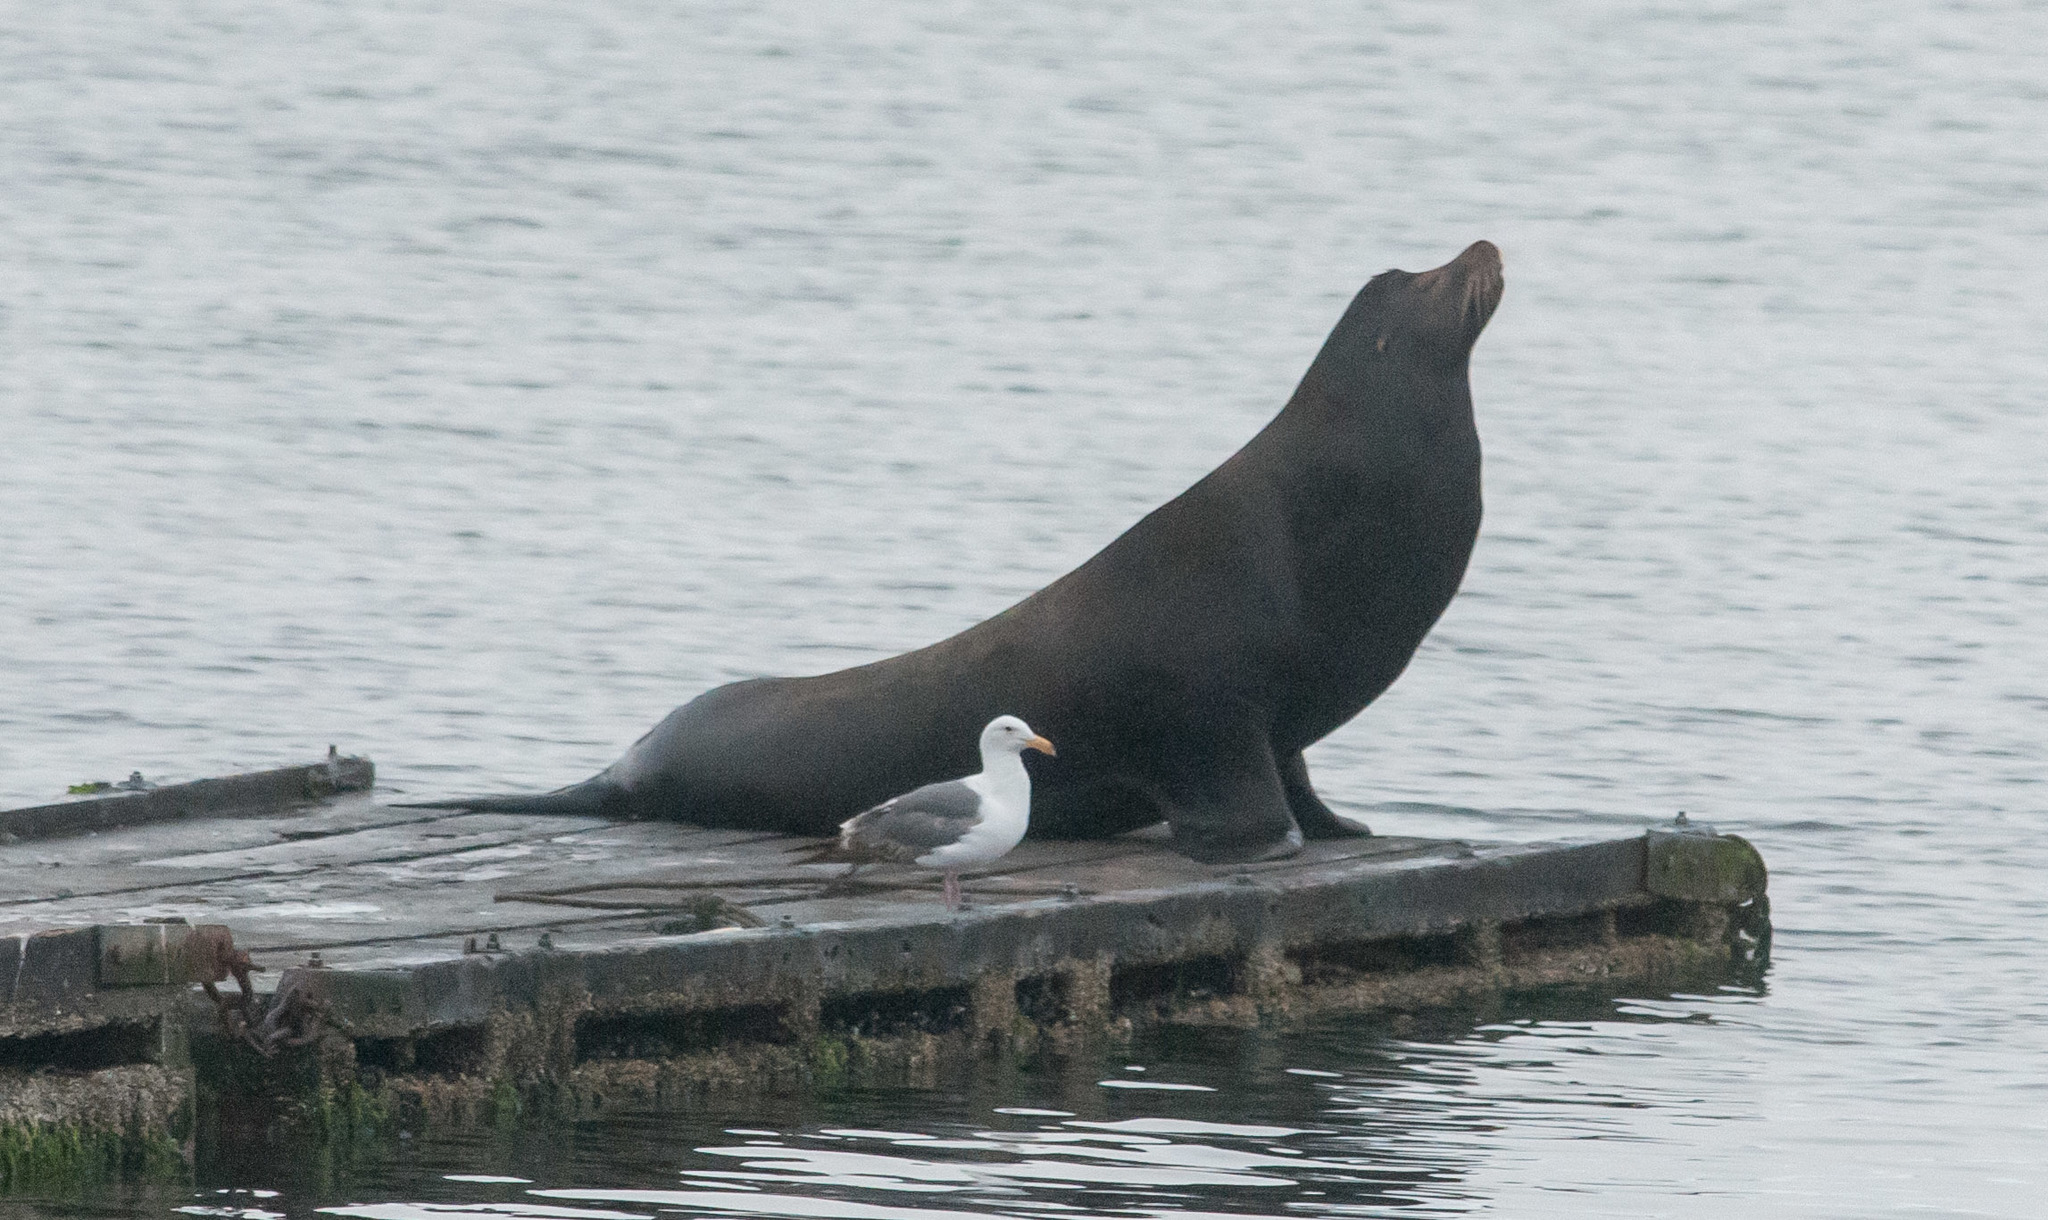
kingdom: Animalia
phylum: Chordata
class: Mammalia
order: Carnivora
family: Otariidae
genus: Zalophus
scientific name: Zalophus californianus
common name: California sea lion
